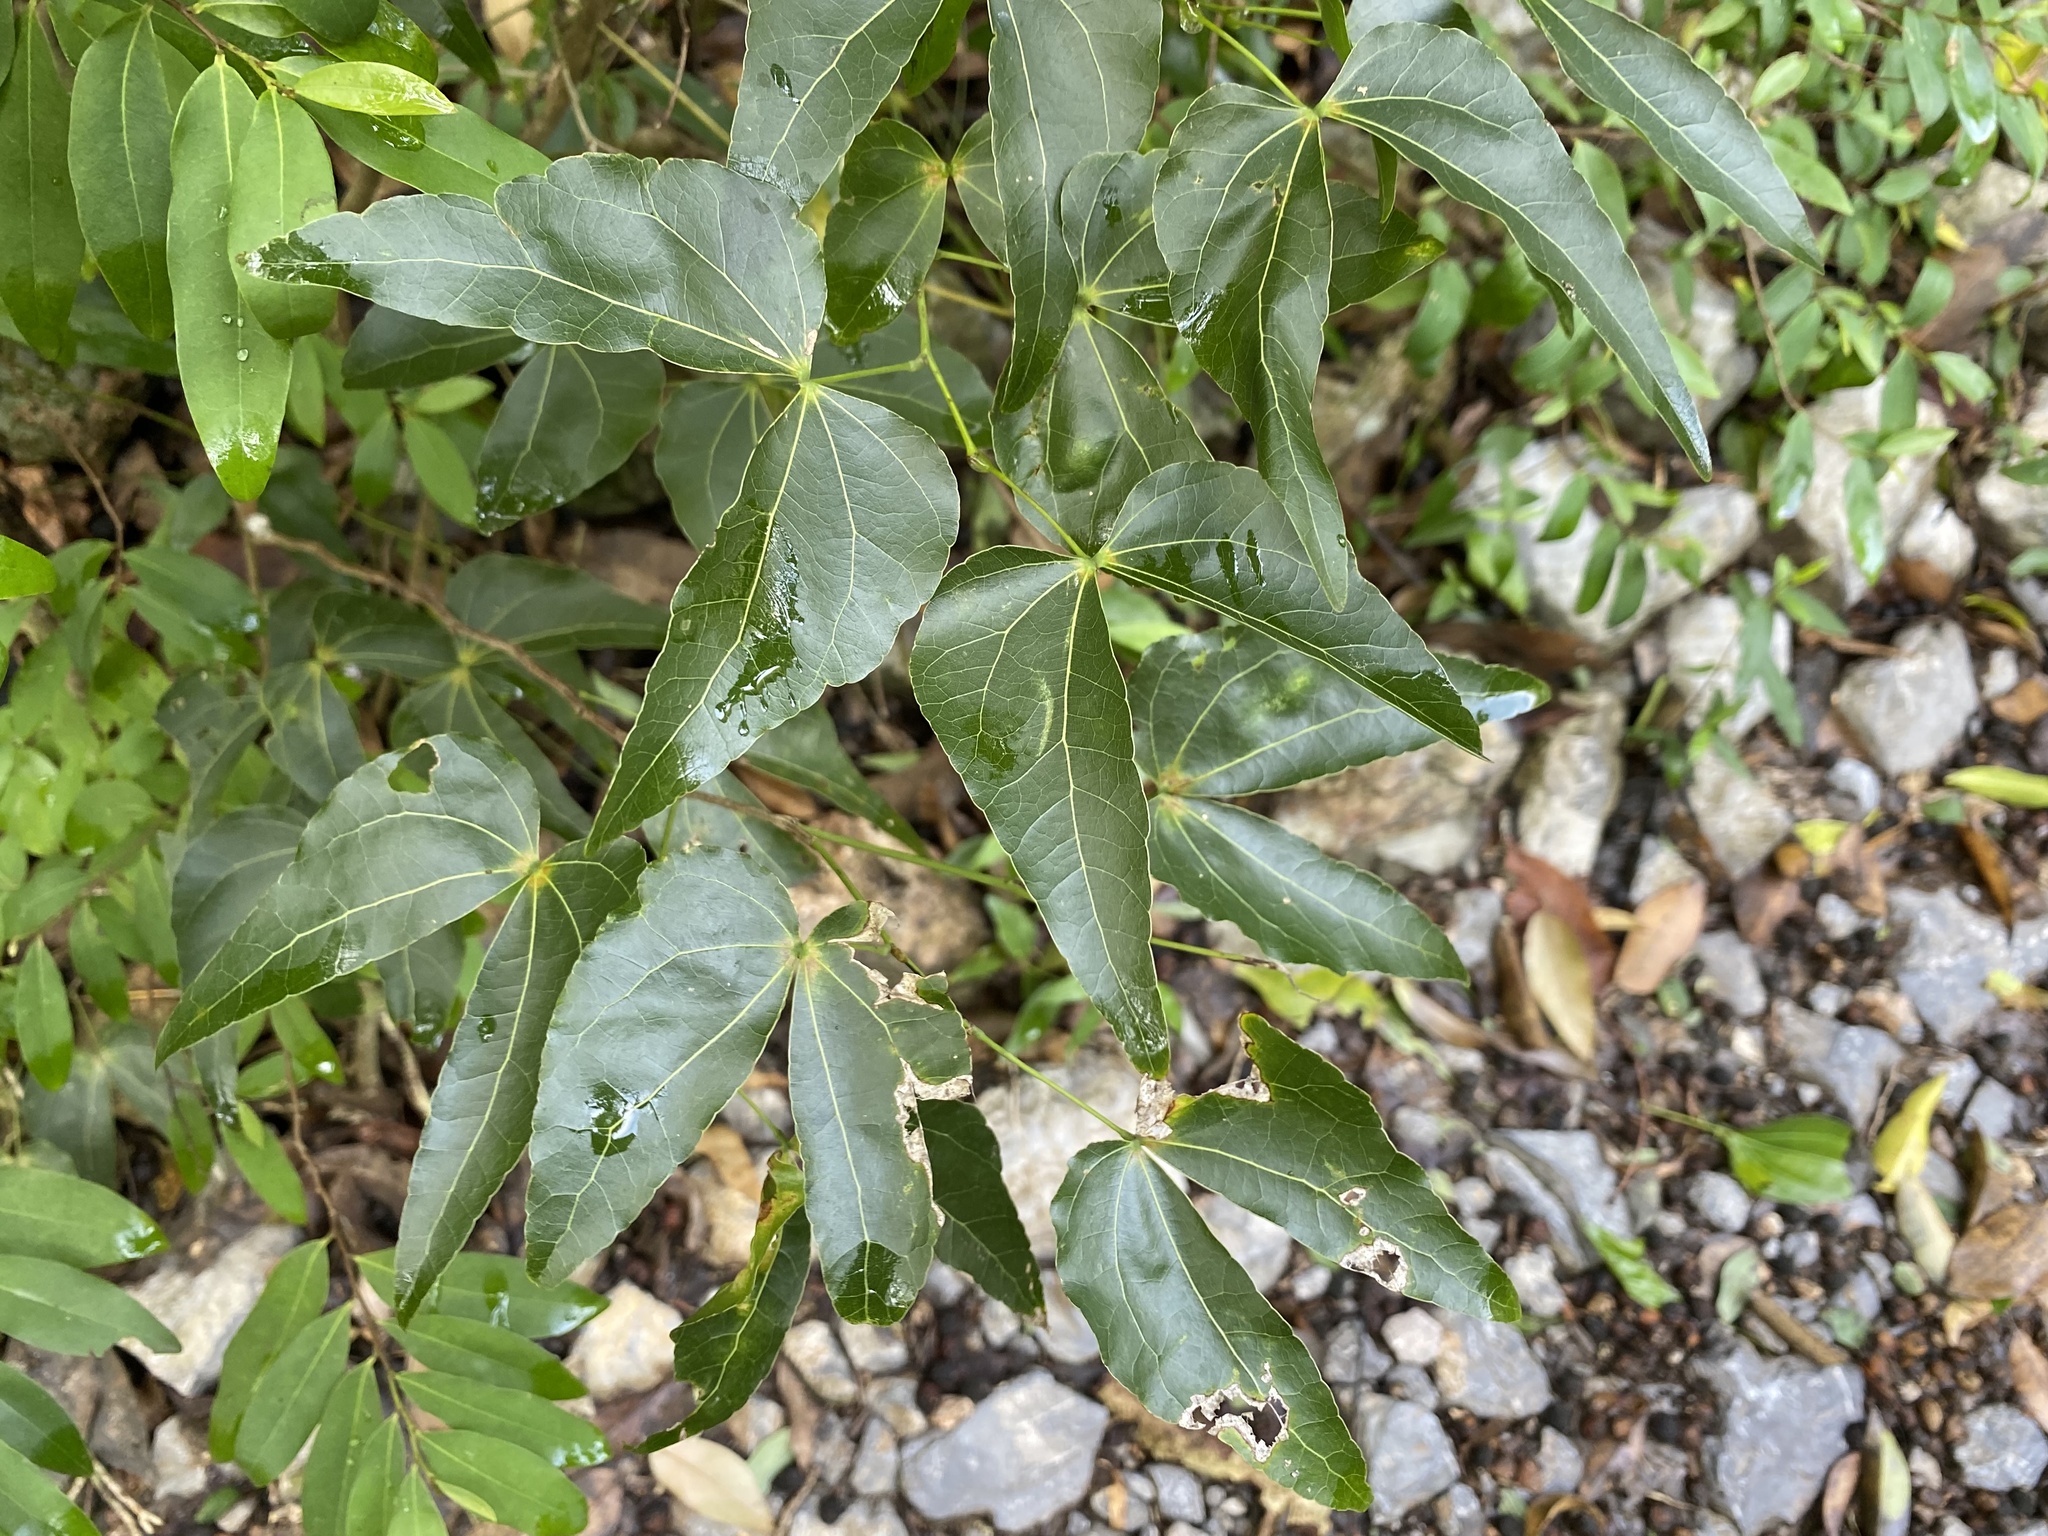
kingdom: Plantae
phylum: Tracheophyta
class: Magnoliopsida
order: Fabales
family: Fabaceae
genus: Bauhinia
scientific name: Bauhinia bartlettii
